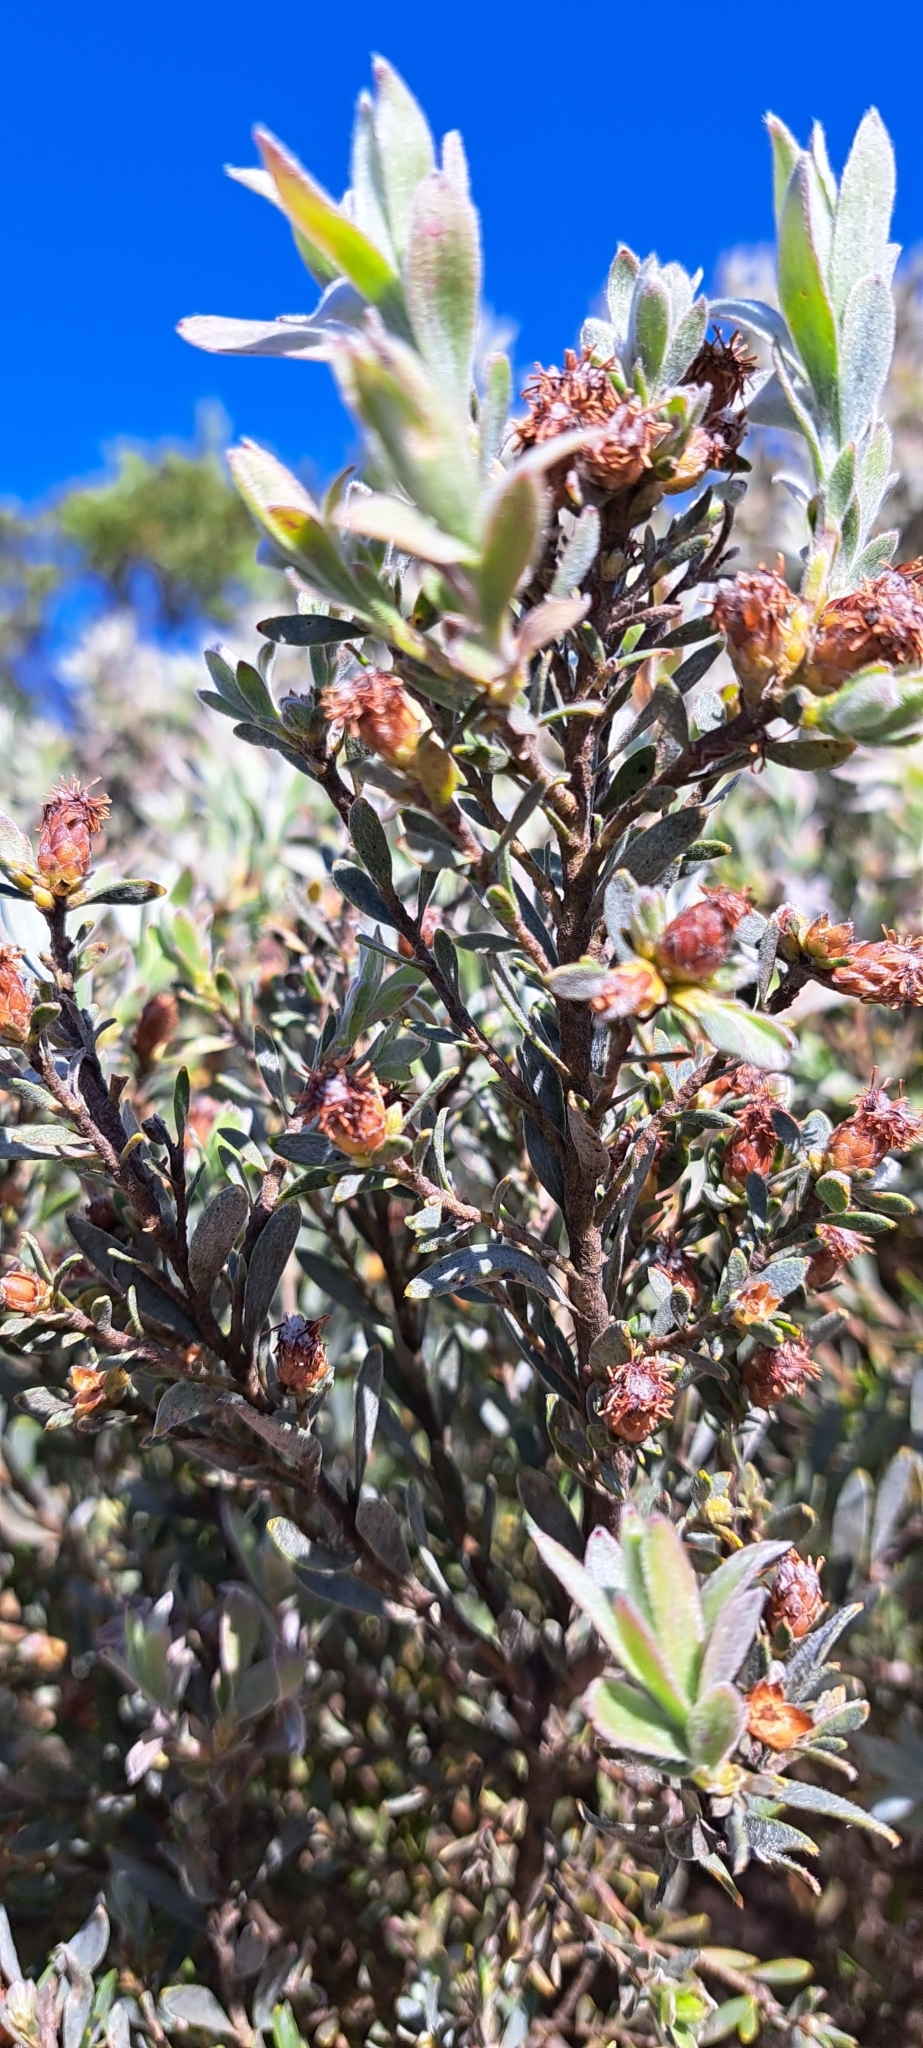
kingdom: Plantae
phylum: Tracheophyta
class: Magnoliopsida
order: Proteales
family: Proteaceae
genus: Leucadendron
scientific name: Leucadendron rubrum
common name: Spinning top
